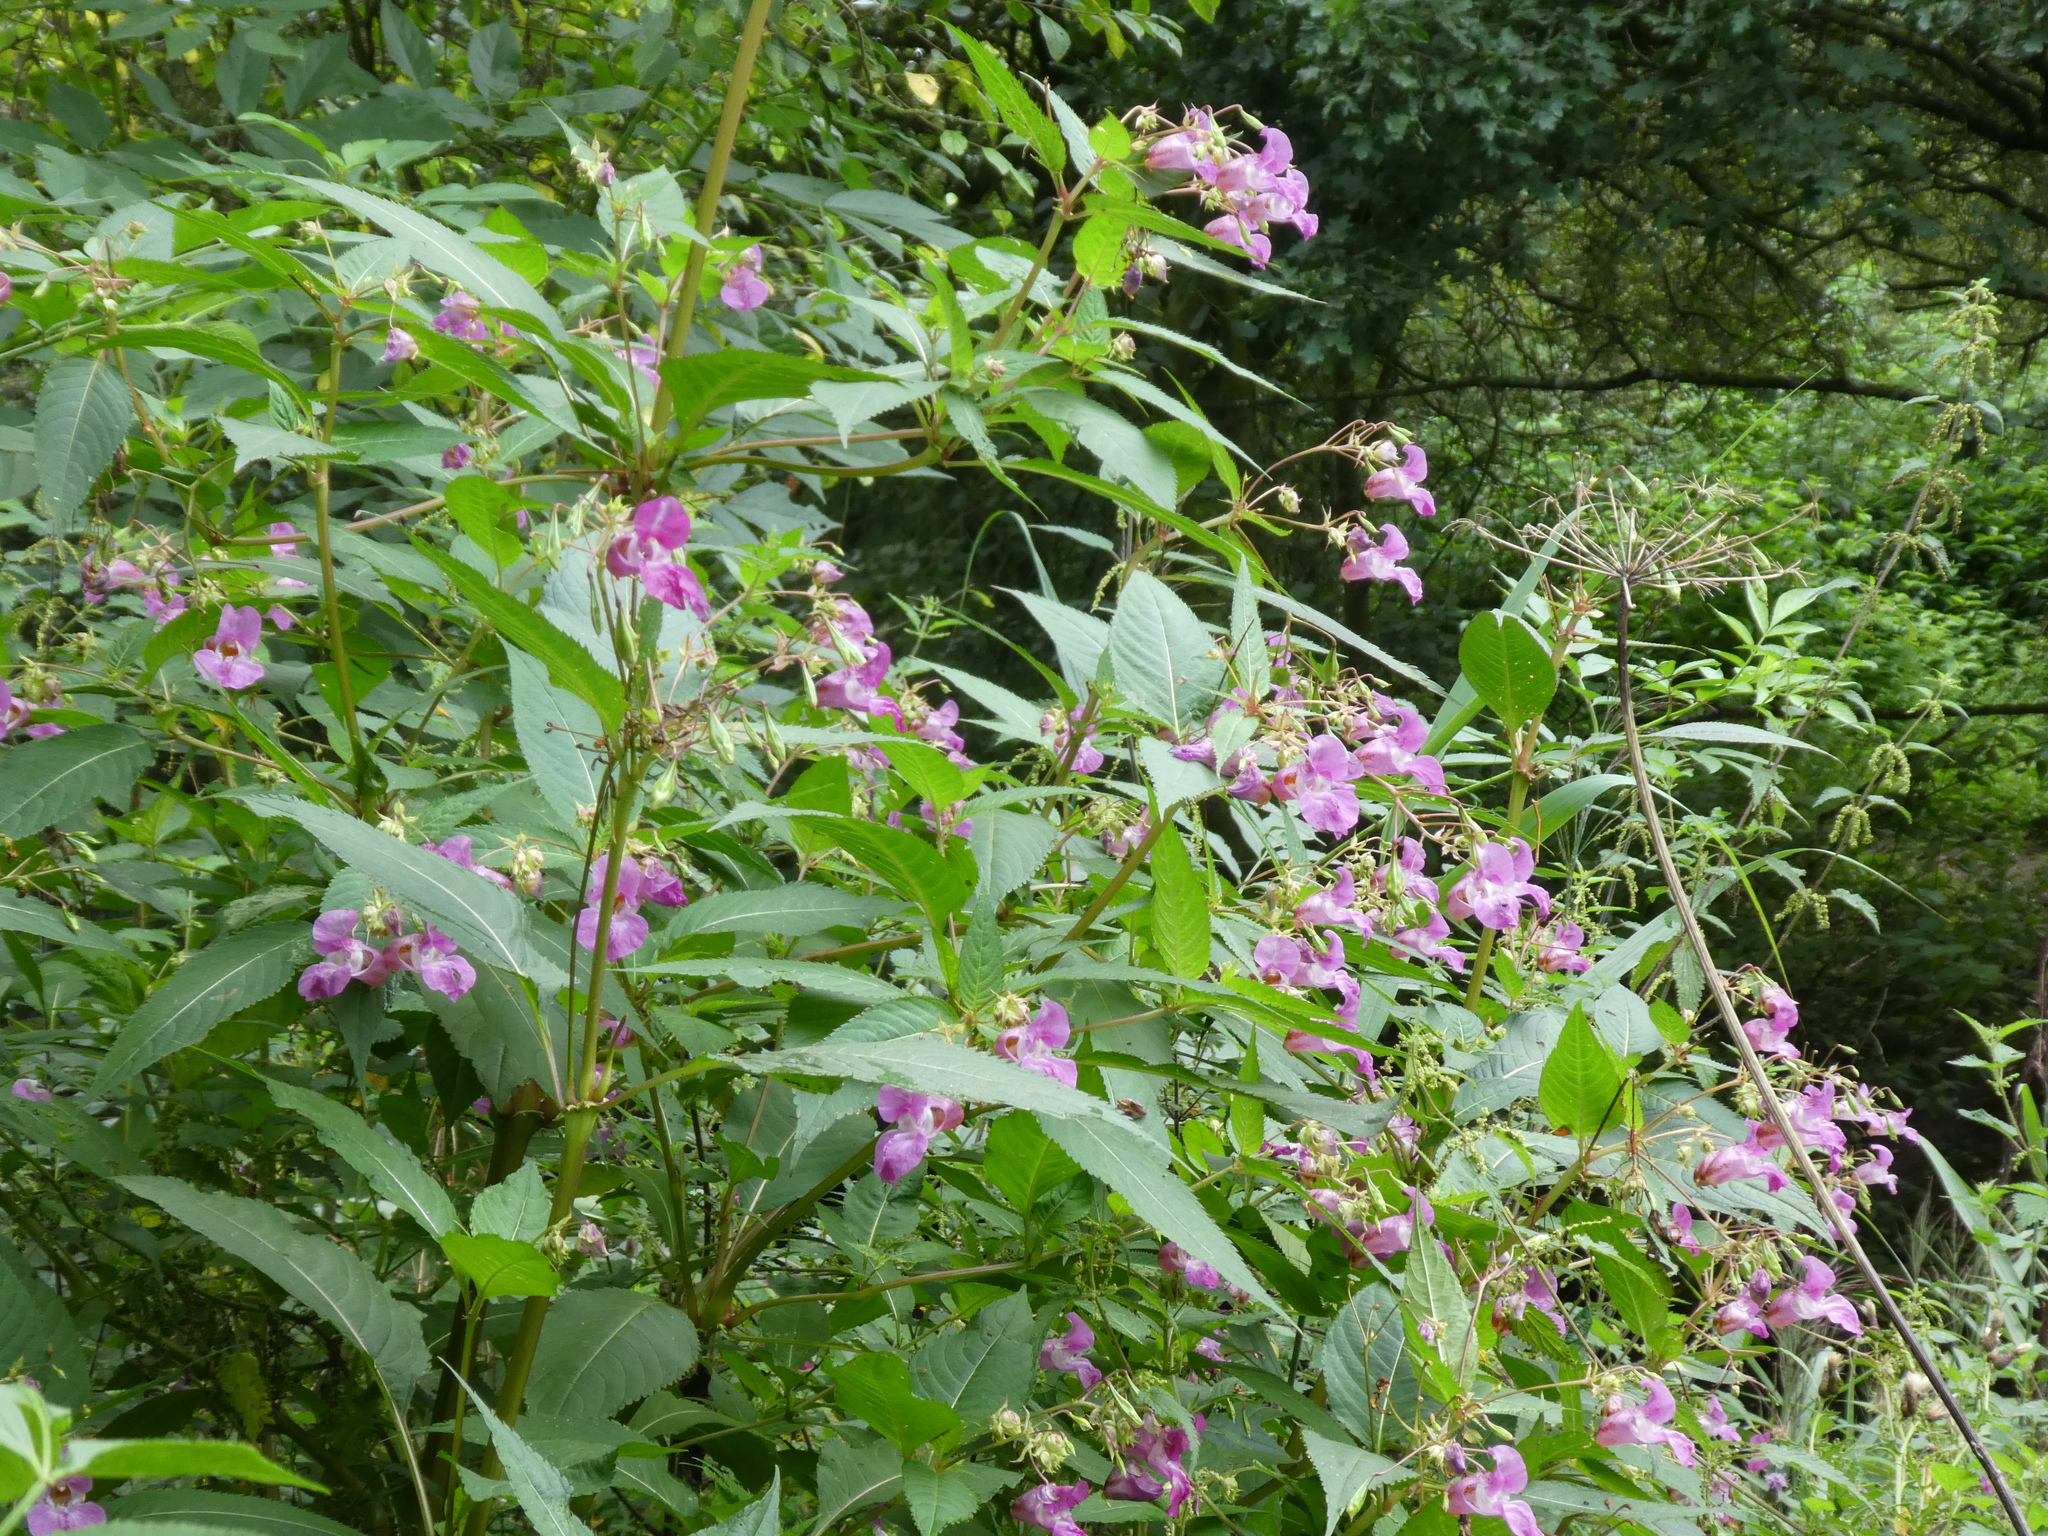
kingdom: Plantae
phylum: Tracheophyta
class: Magnoliopsida
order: Ericales
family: Balsaminaceae
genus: Impatiens
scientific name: Impatiens glandulifera
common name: Himalayan balsam
